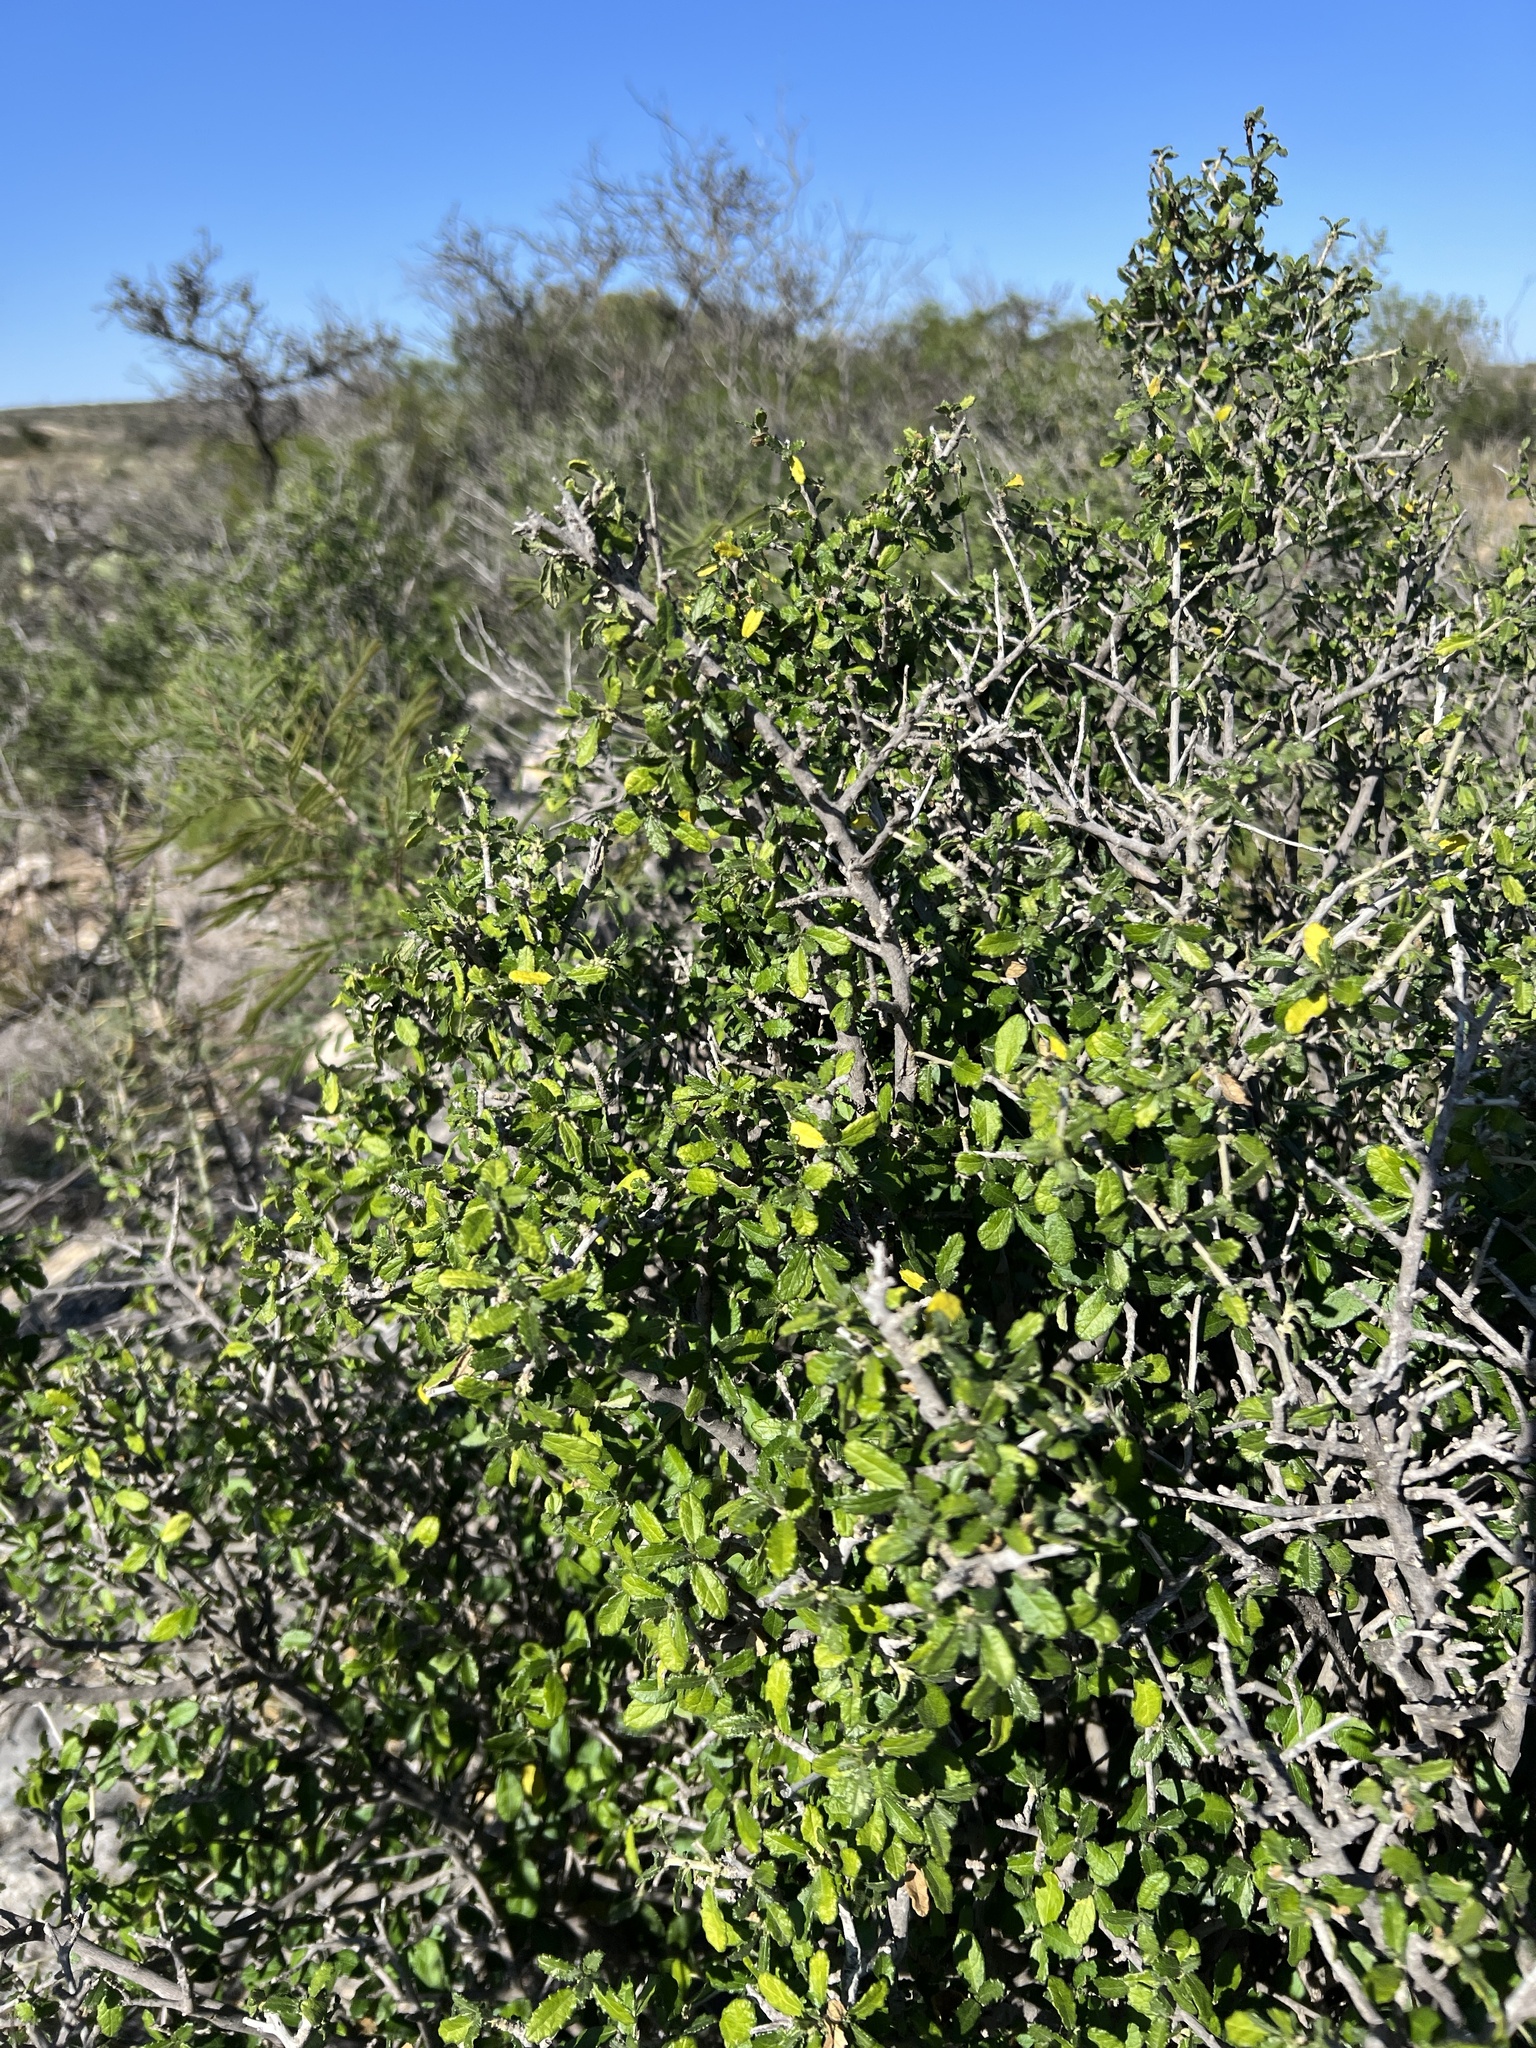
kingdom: Plantae
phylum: Tracheophyta
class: Magnoliopsida
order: Malpighiales
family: Euphorbiaceae
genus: Bernardia
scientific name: Bernardia myricifolia
